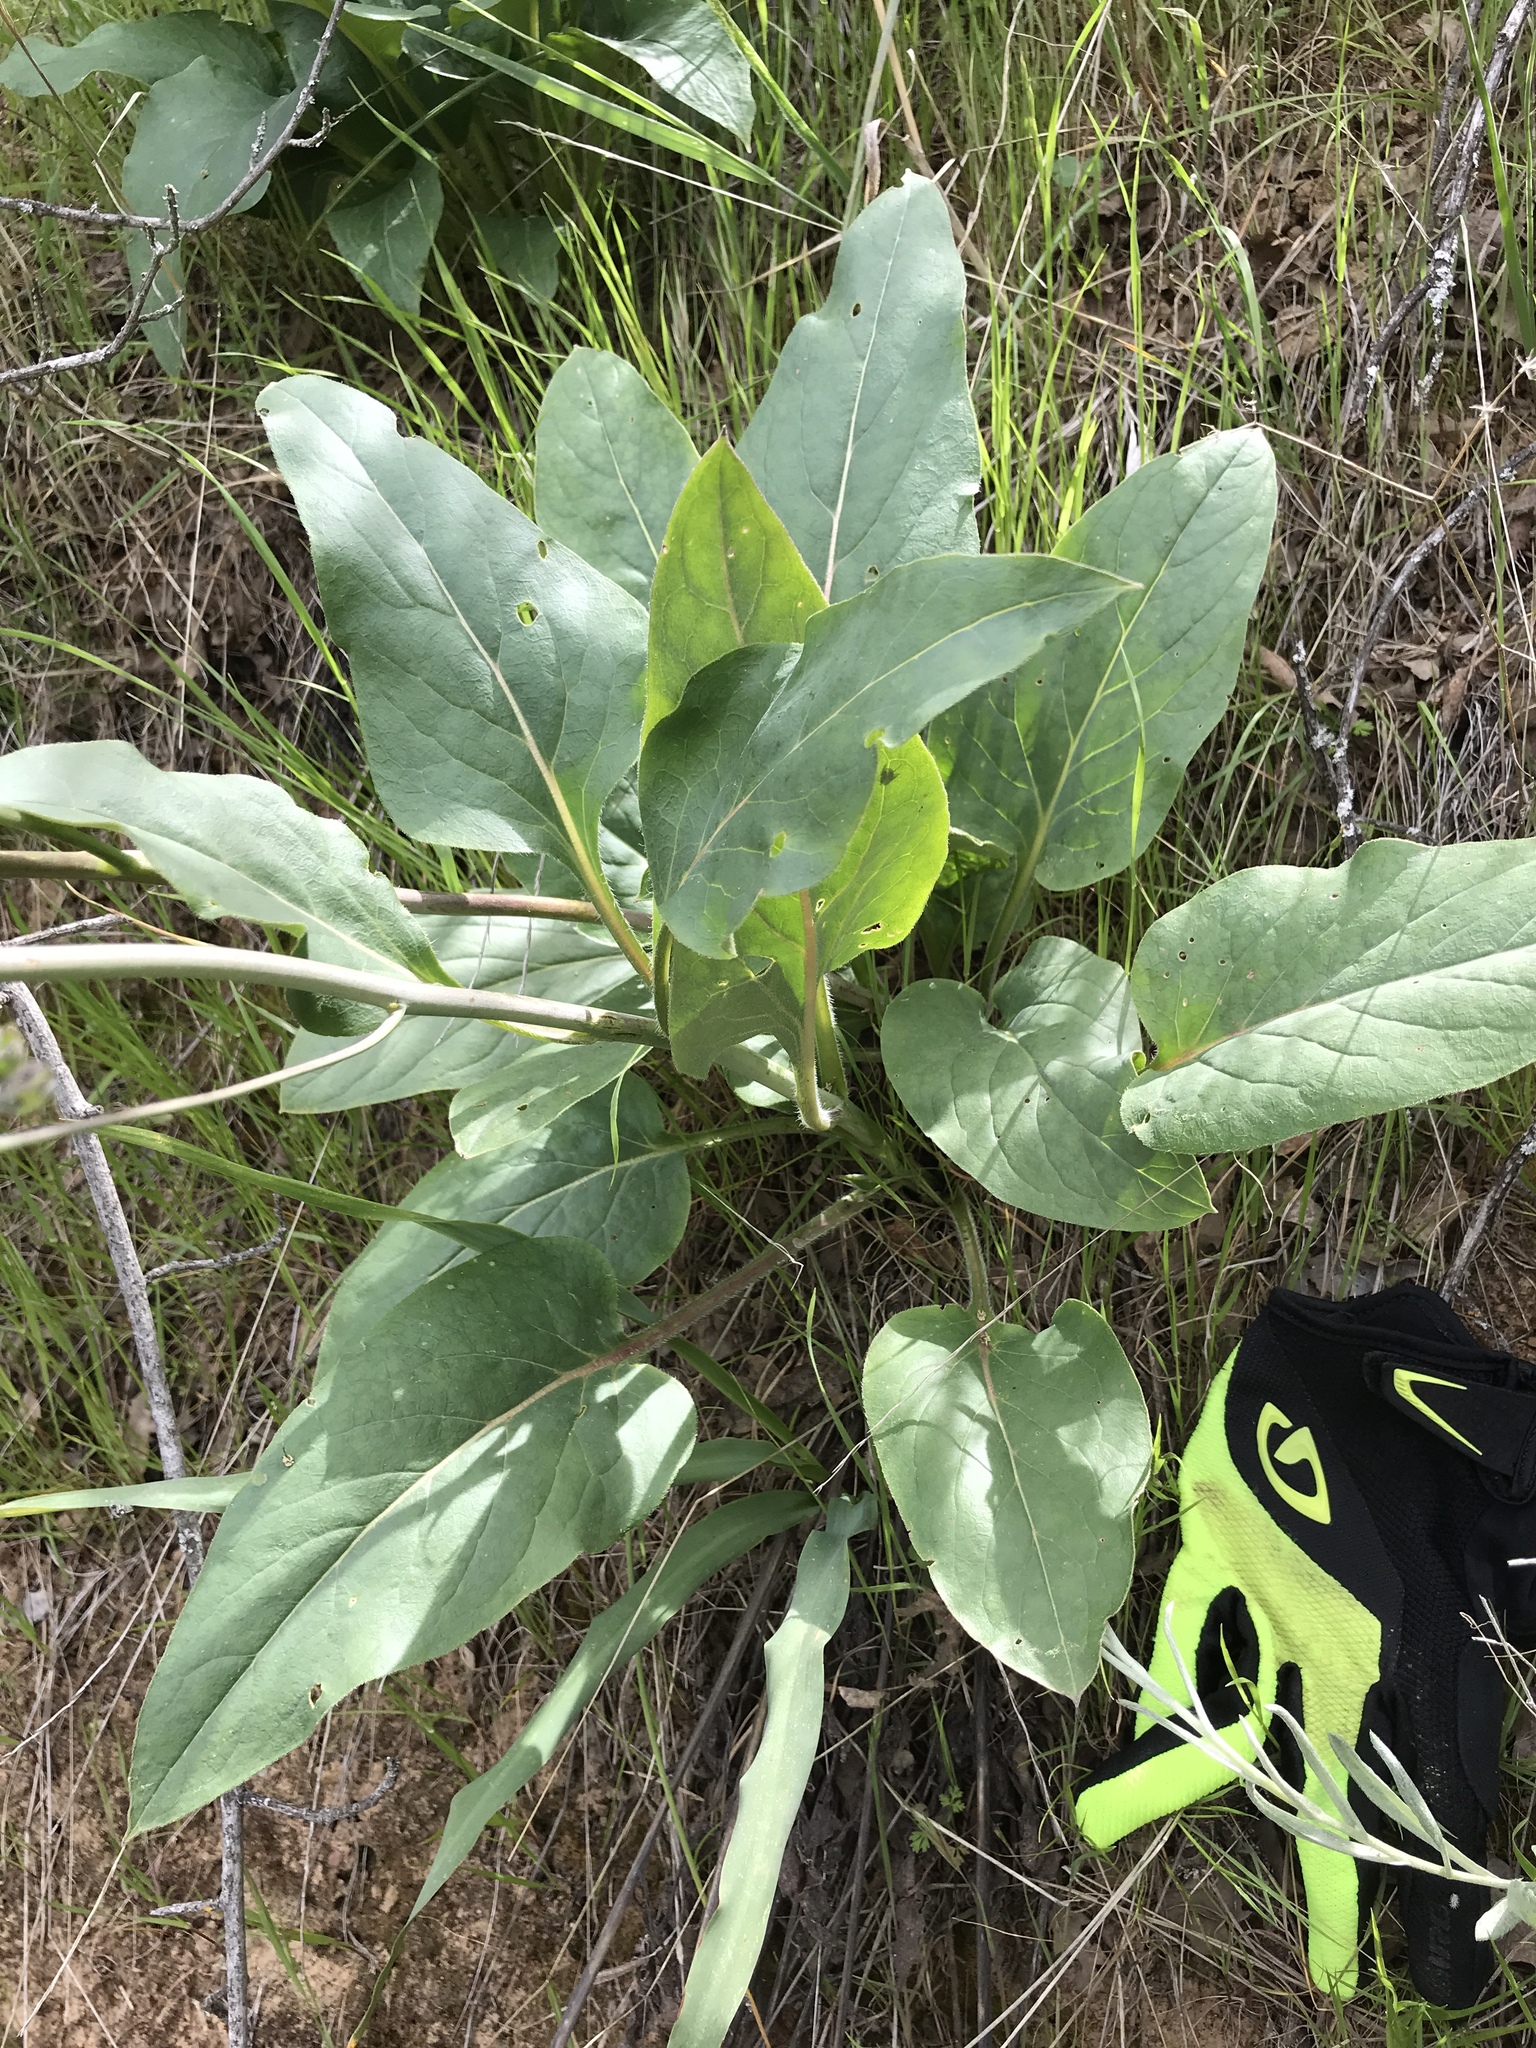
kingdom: Plantae
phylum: Tracheophyta
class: Magnoliopsida
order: Boraginales
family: Boraginaceae
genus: Adelinia
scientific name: Adelinia grande
